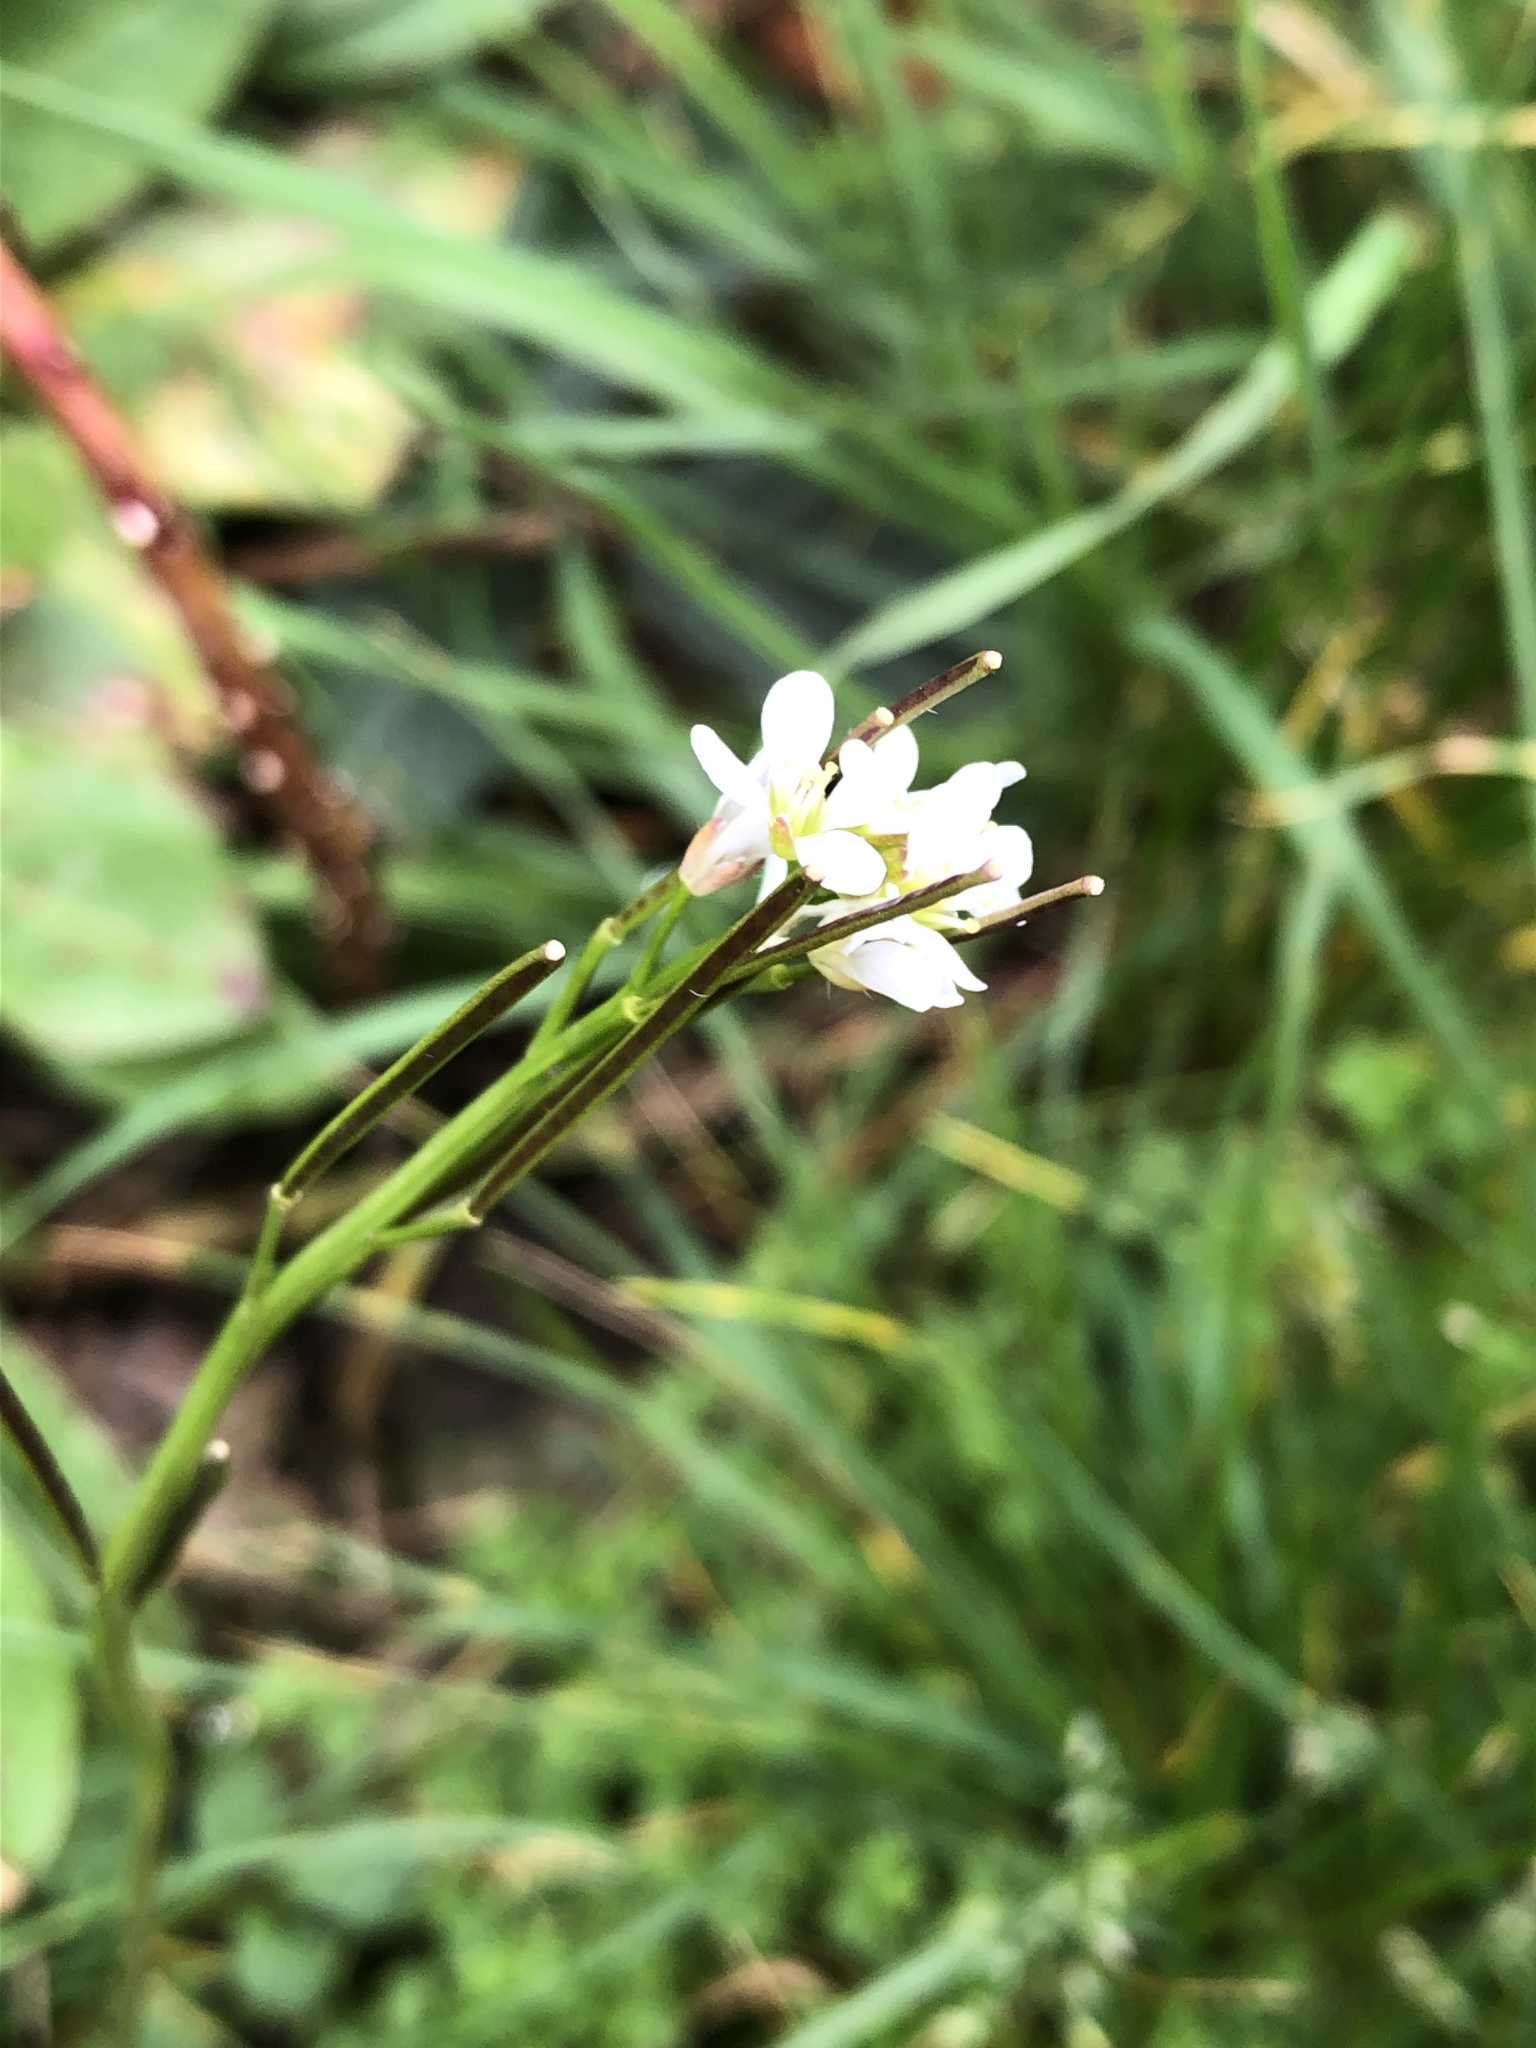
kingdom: Plantae
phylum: Tracheophyta
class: Magnoliopsida
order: Brassicales
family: Brassicaceae
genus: Cardamine
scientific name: Cardamine flexuosa
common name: Woodland bittercress
